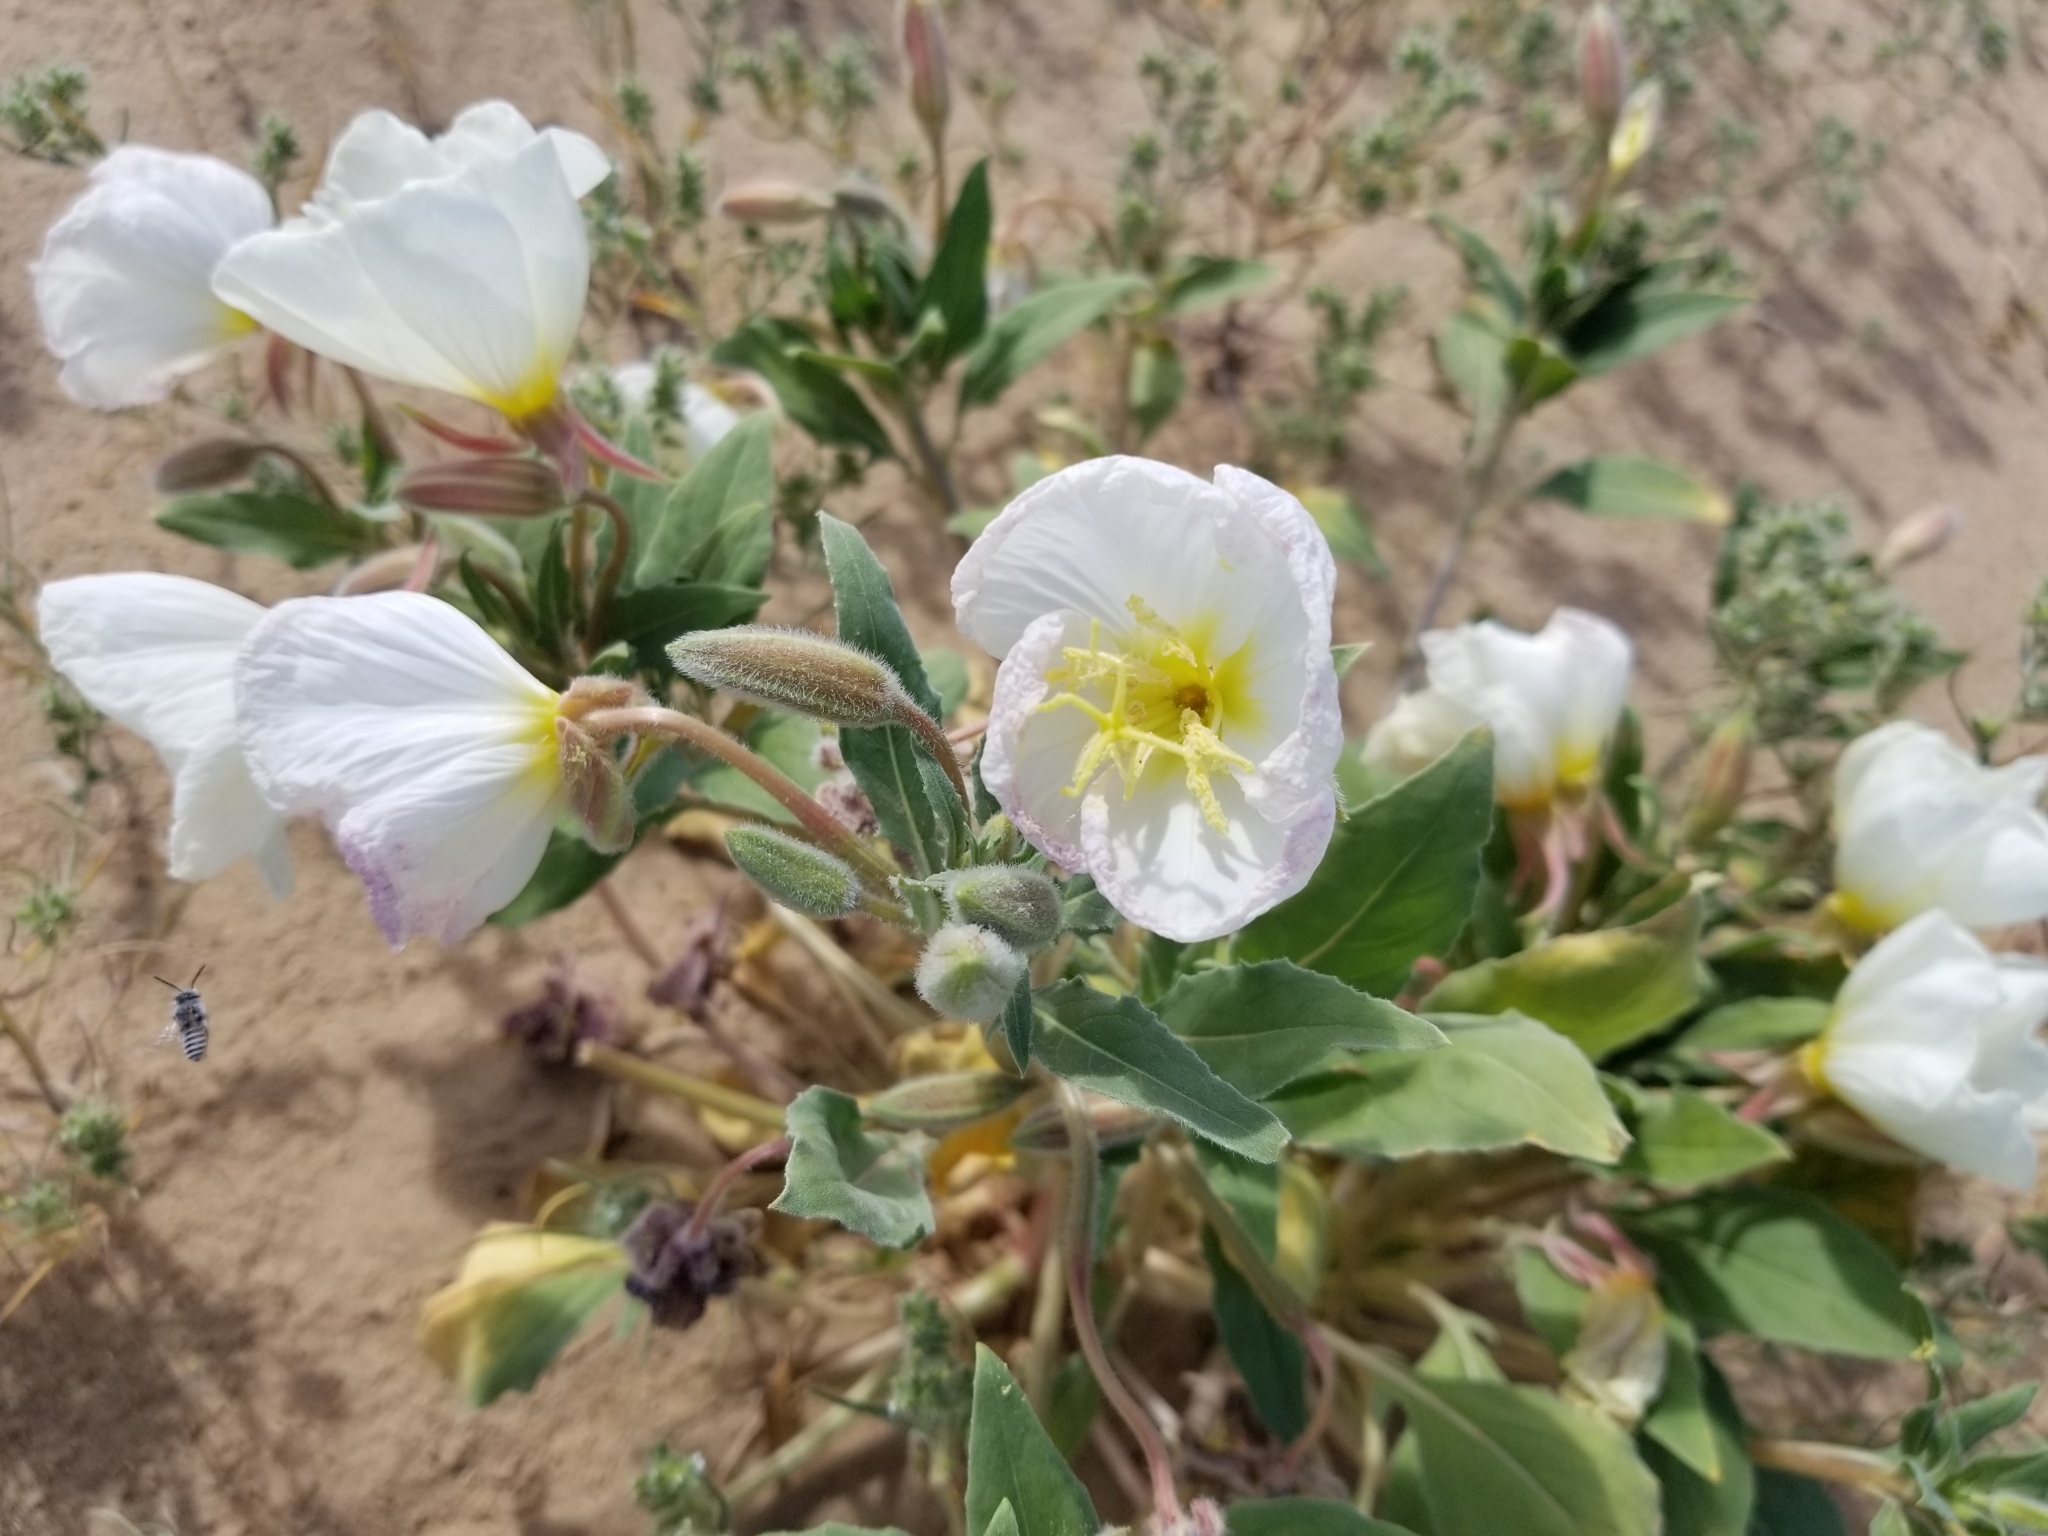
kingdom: Plantae
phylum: Tracheophyta
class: Magnoliopsida
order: Myrtales
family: Onagraceae
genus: Oenothera
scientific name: Oenothera deltoides
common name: Basket evening-primrose
